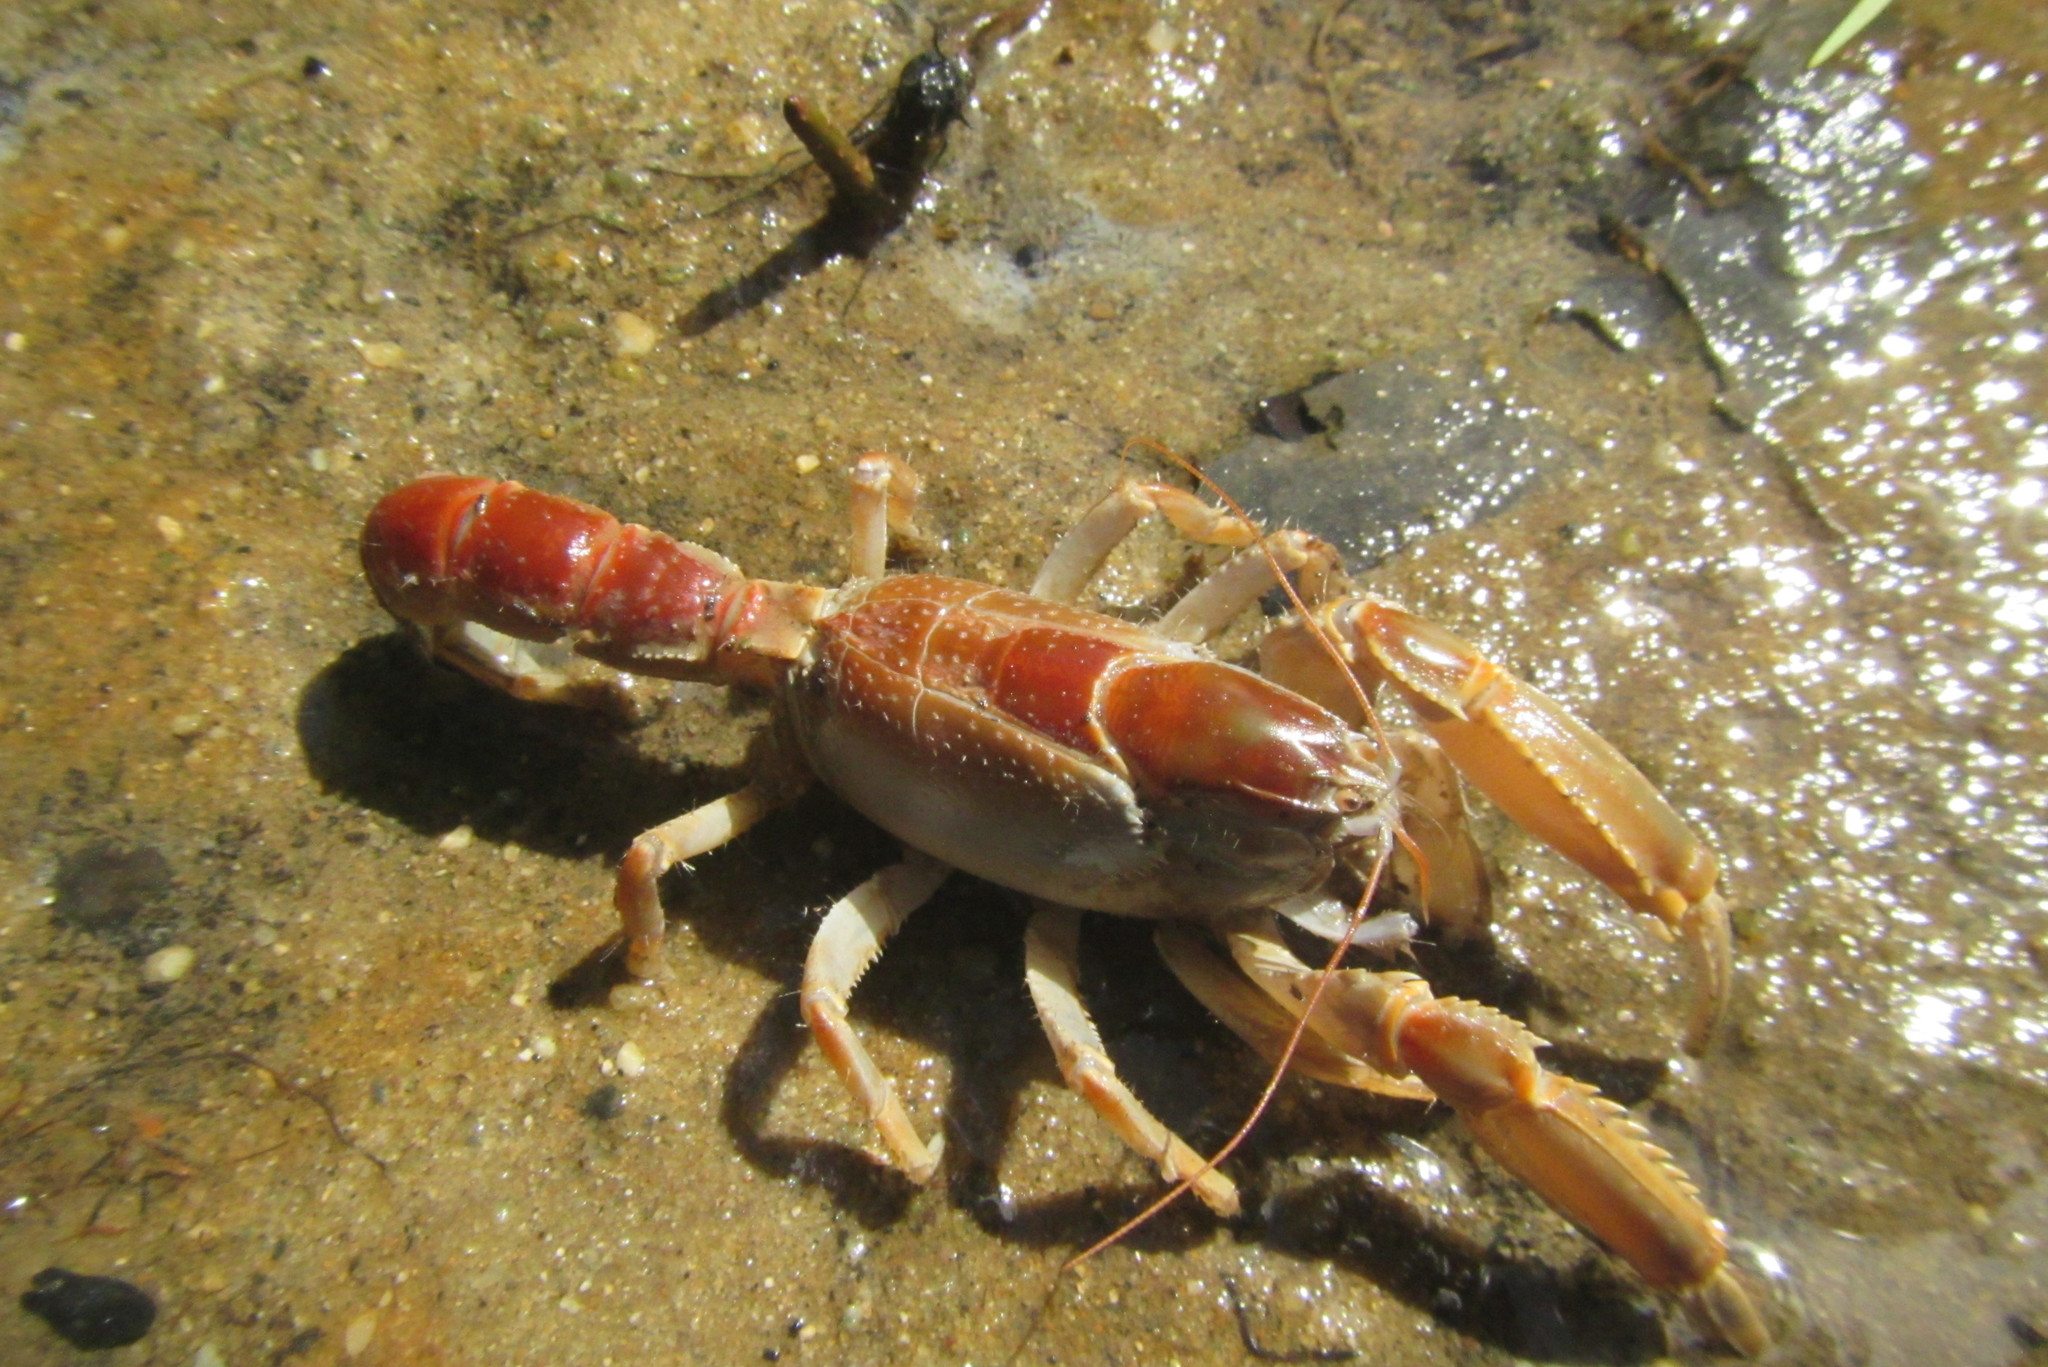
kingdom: Animalia
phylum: Arthropoda
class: Malacostraca
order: Decapoda
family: Thalassinidae
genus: Thalassina
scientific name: Thalassina anomala
